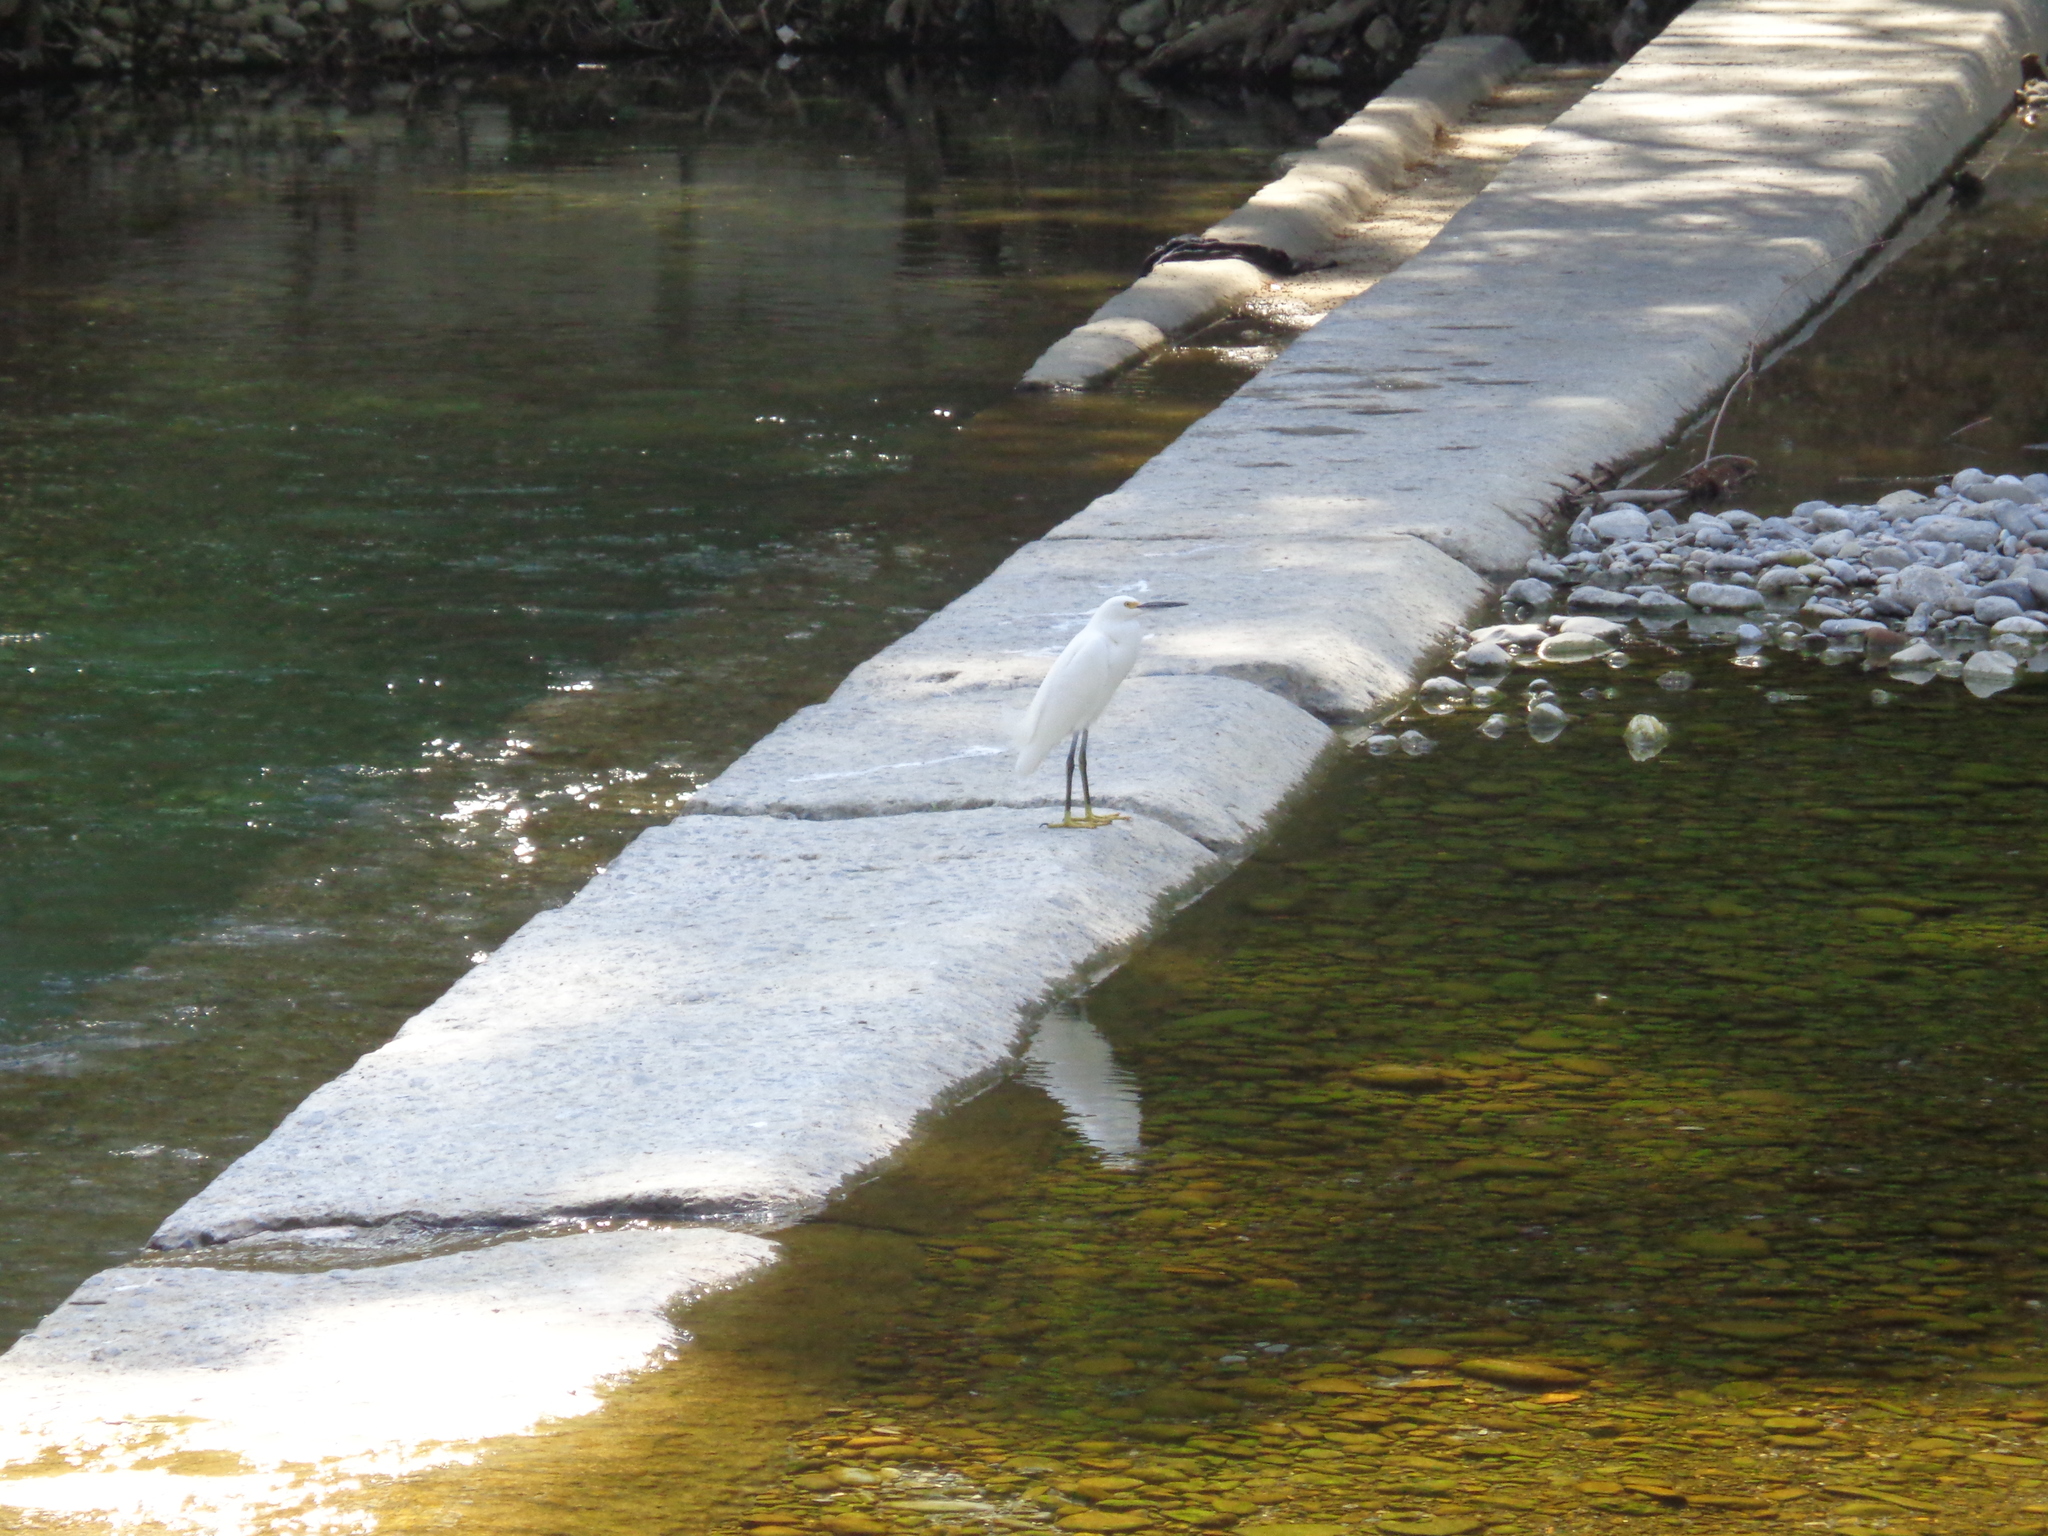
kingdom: Animalia
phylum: Chordata
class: Aves
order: Pelecaniformes
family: Ardeidae
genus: Egretta
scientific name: Egretta thula
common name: Snowy egret
